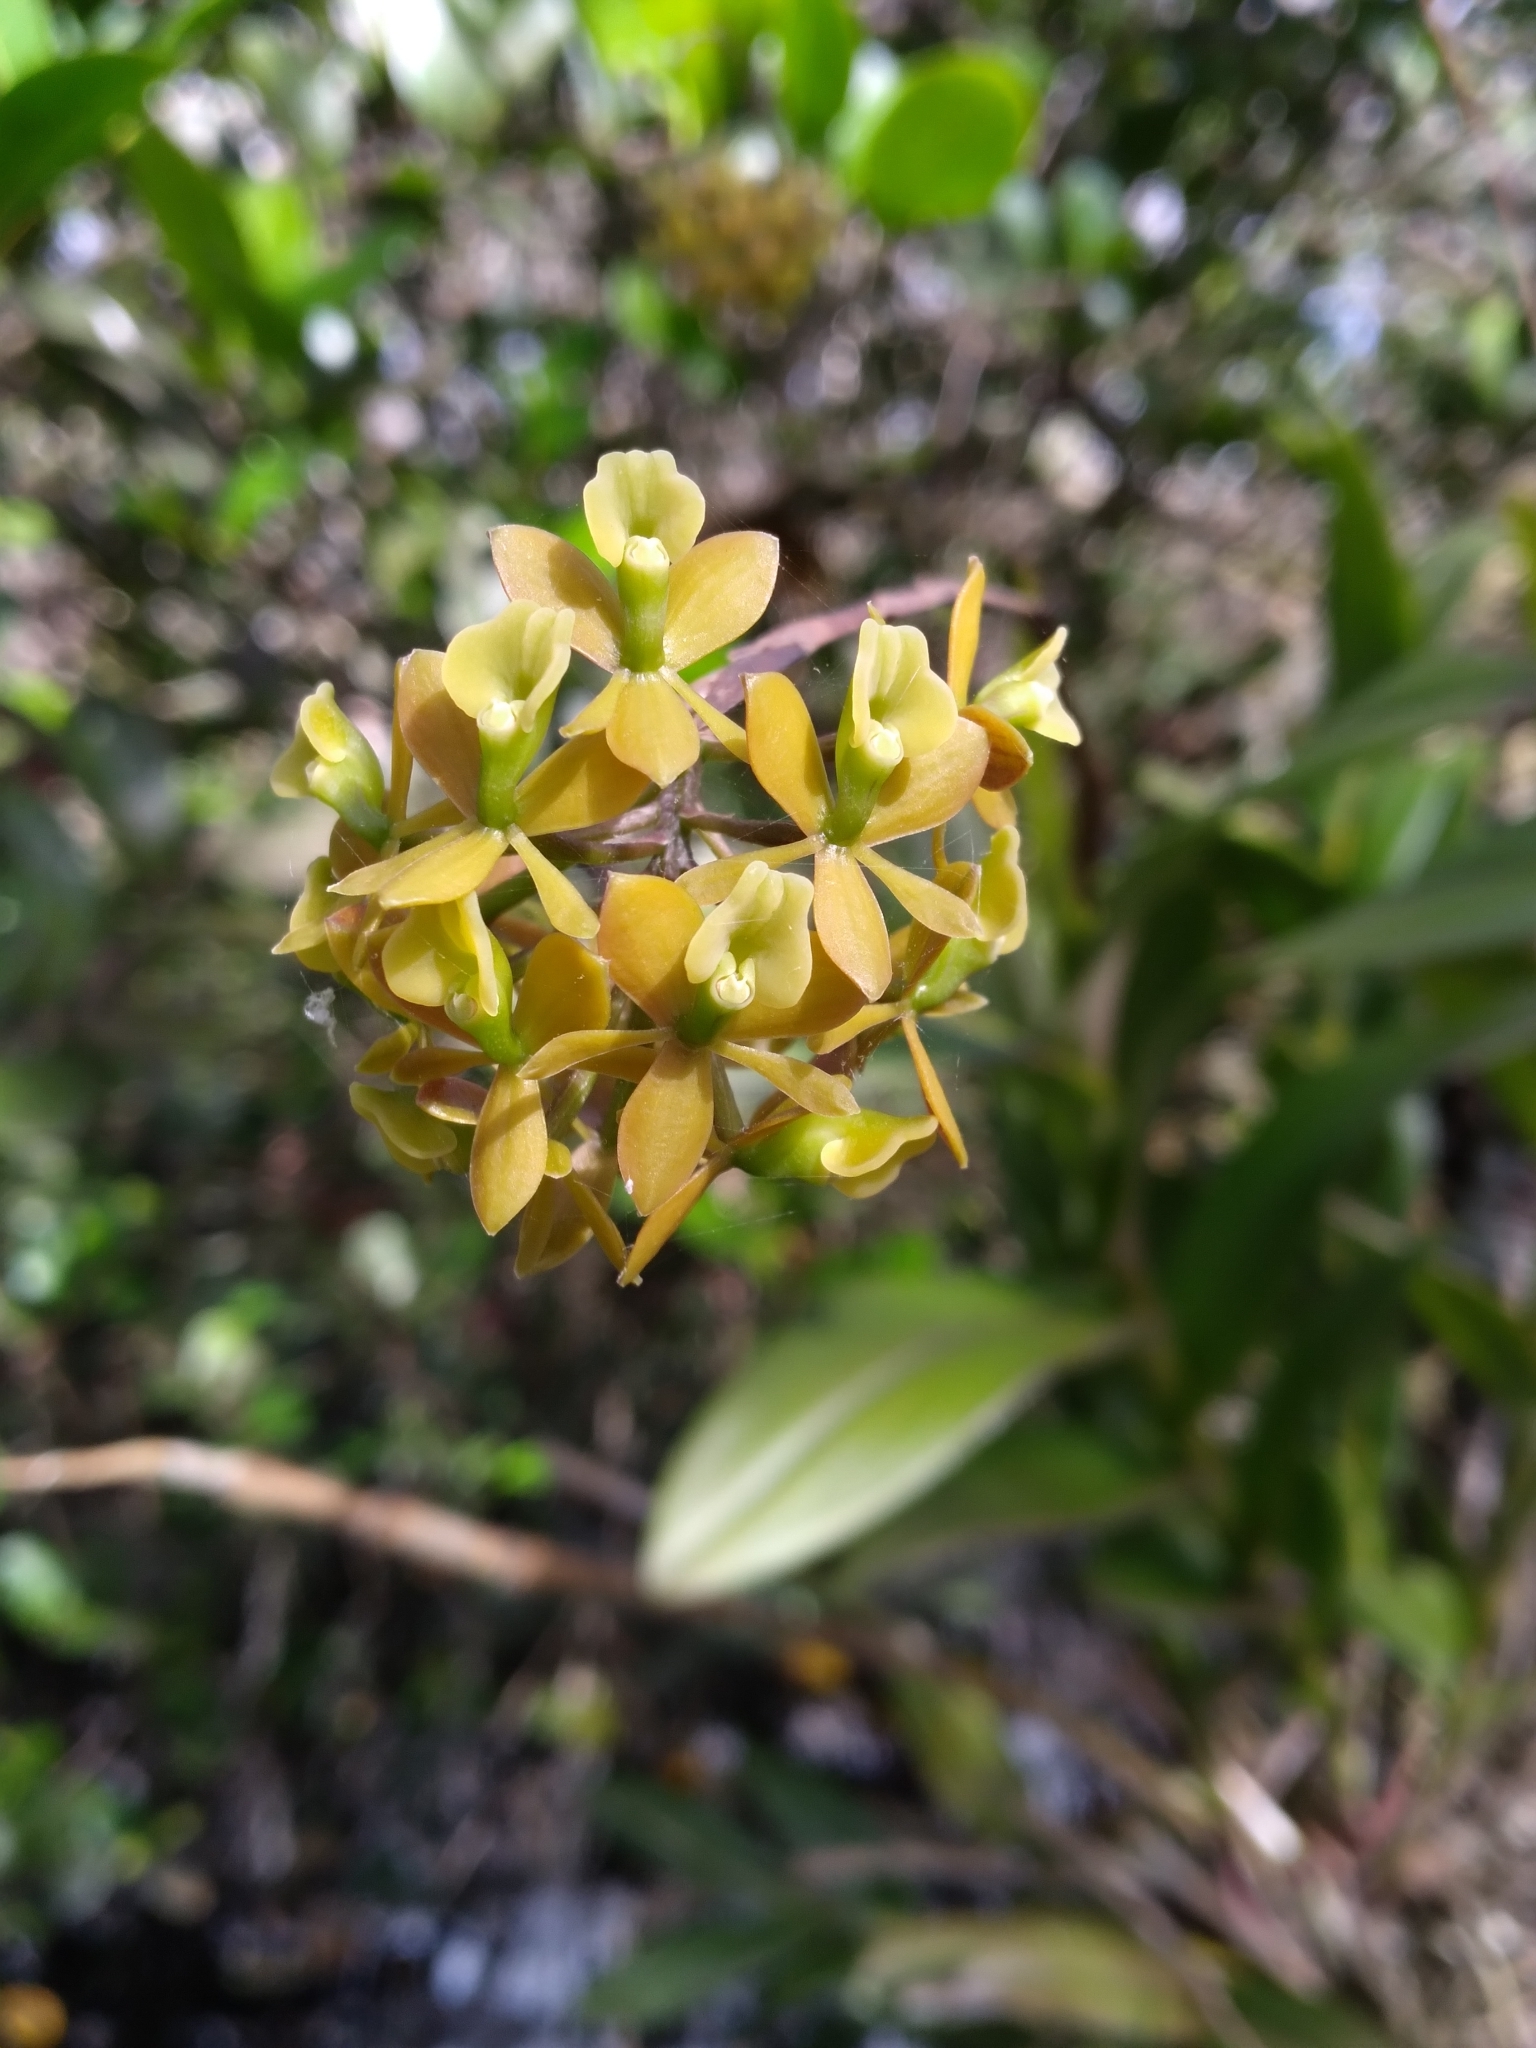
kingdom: Plantae
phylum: Tracheophyta
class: Liliopsida
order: Asparagales
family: Orchidaceae
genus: Epidendrum
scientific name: Epidendrum amphistomum
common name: Big-mouth star orchid
